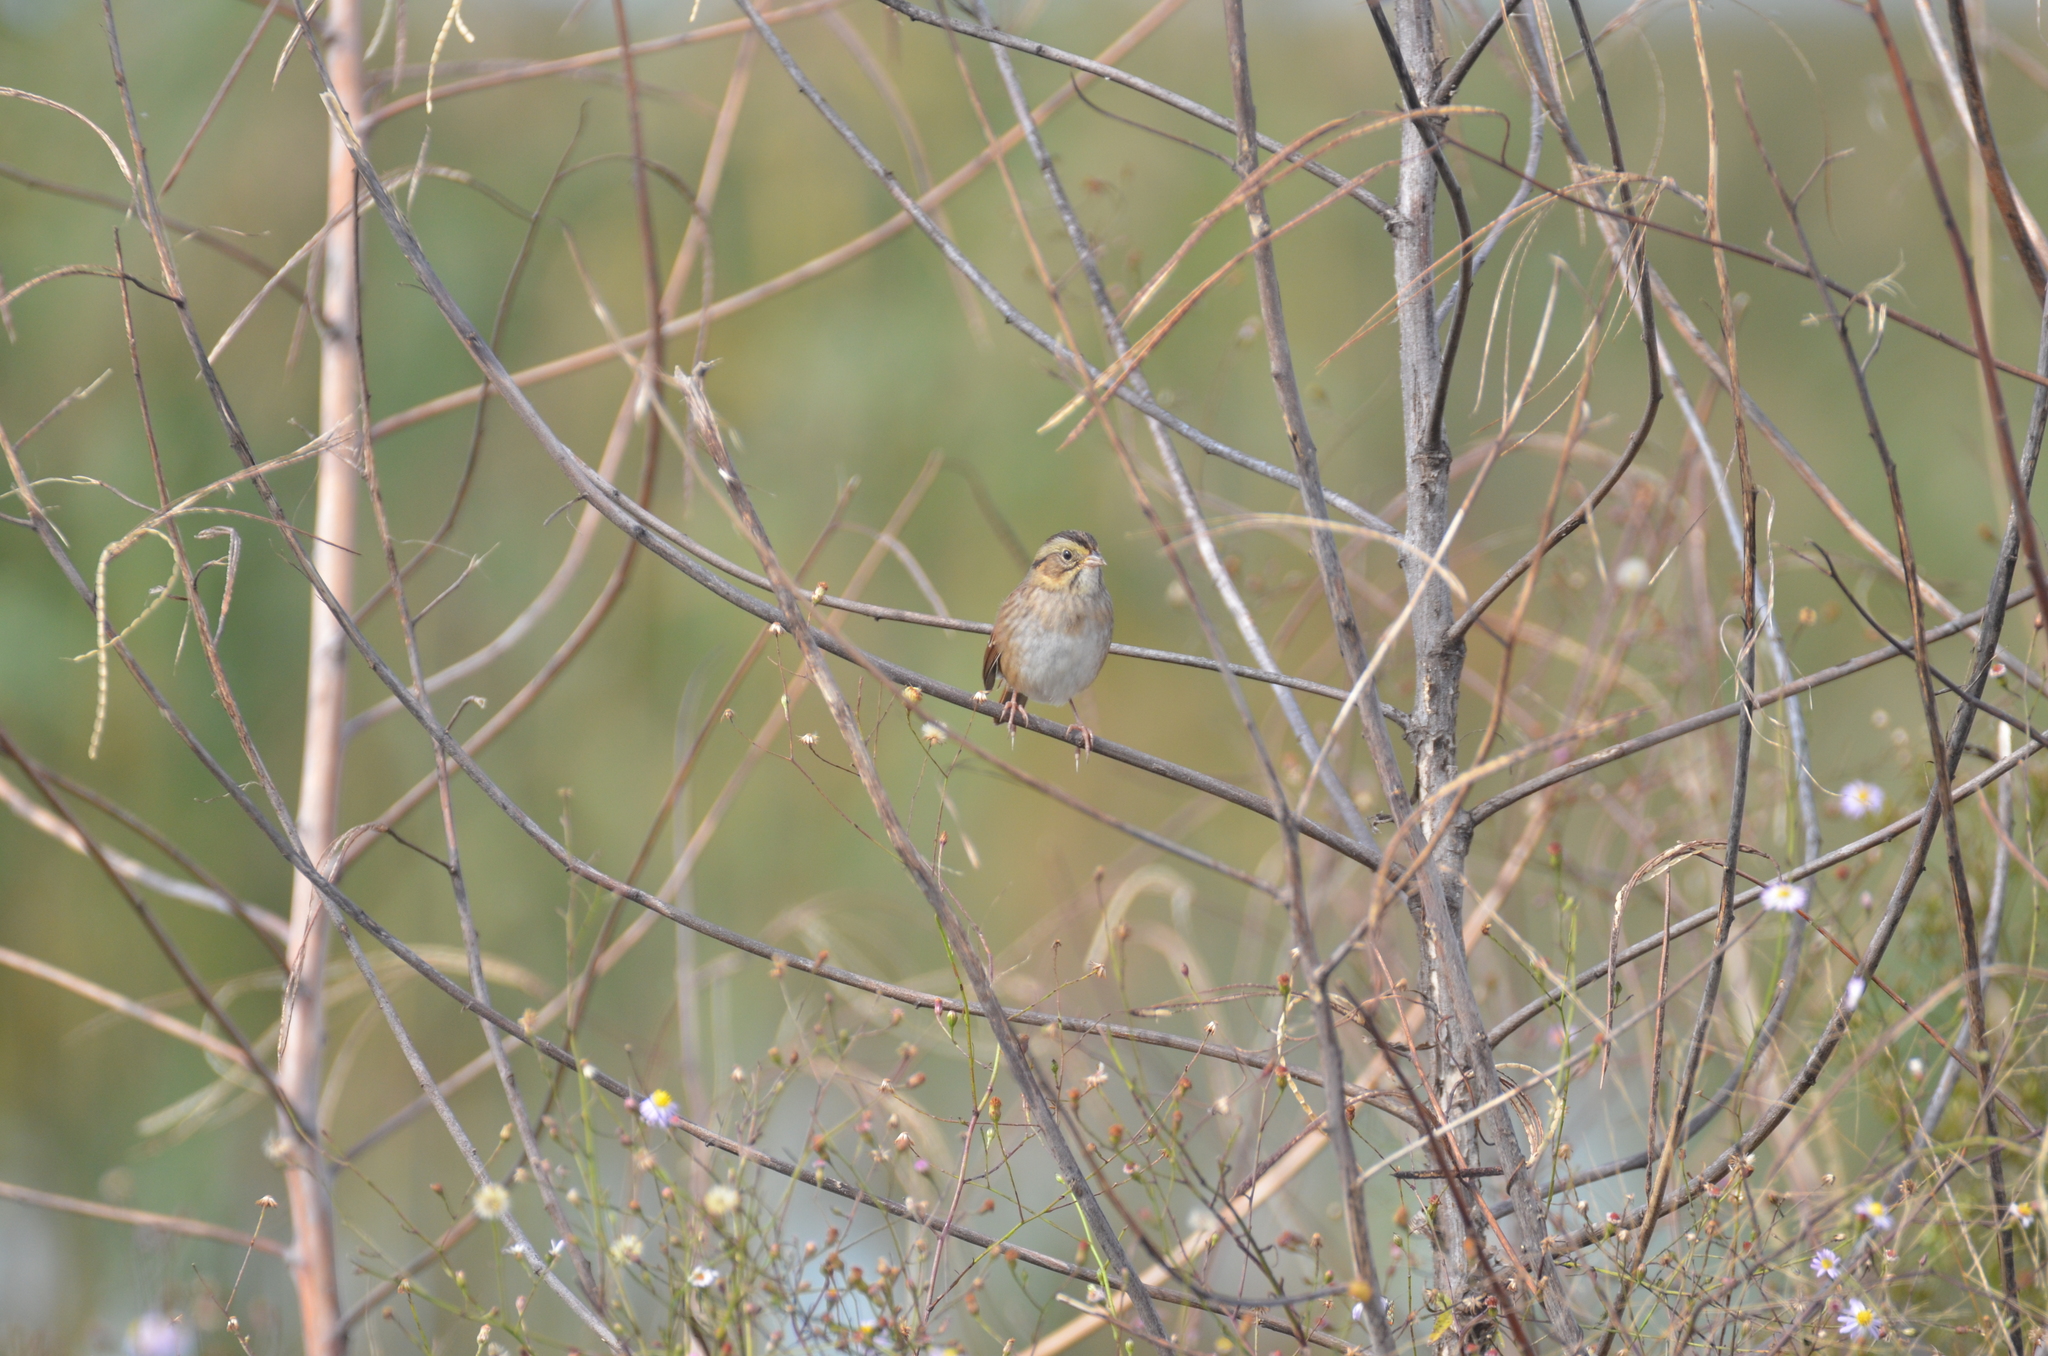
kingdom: Animalia
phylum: Chordata
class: Aves
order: Passeriformes
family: Passerellidae
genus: Melospiza
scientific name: Melospiza georgiana
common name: Swamp sparrow
